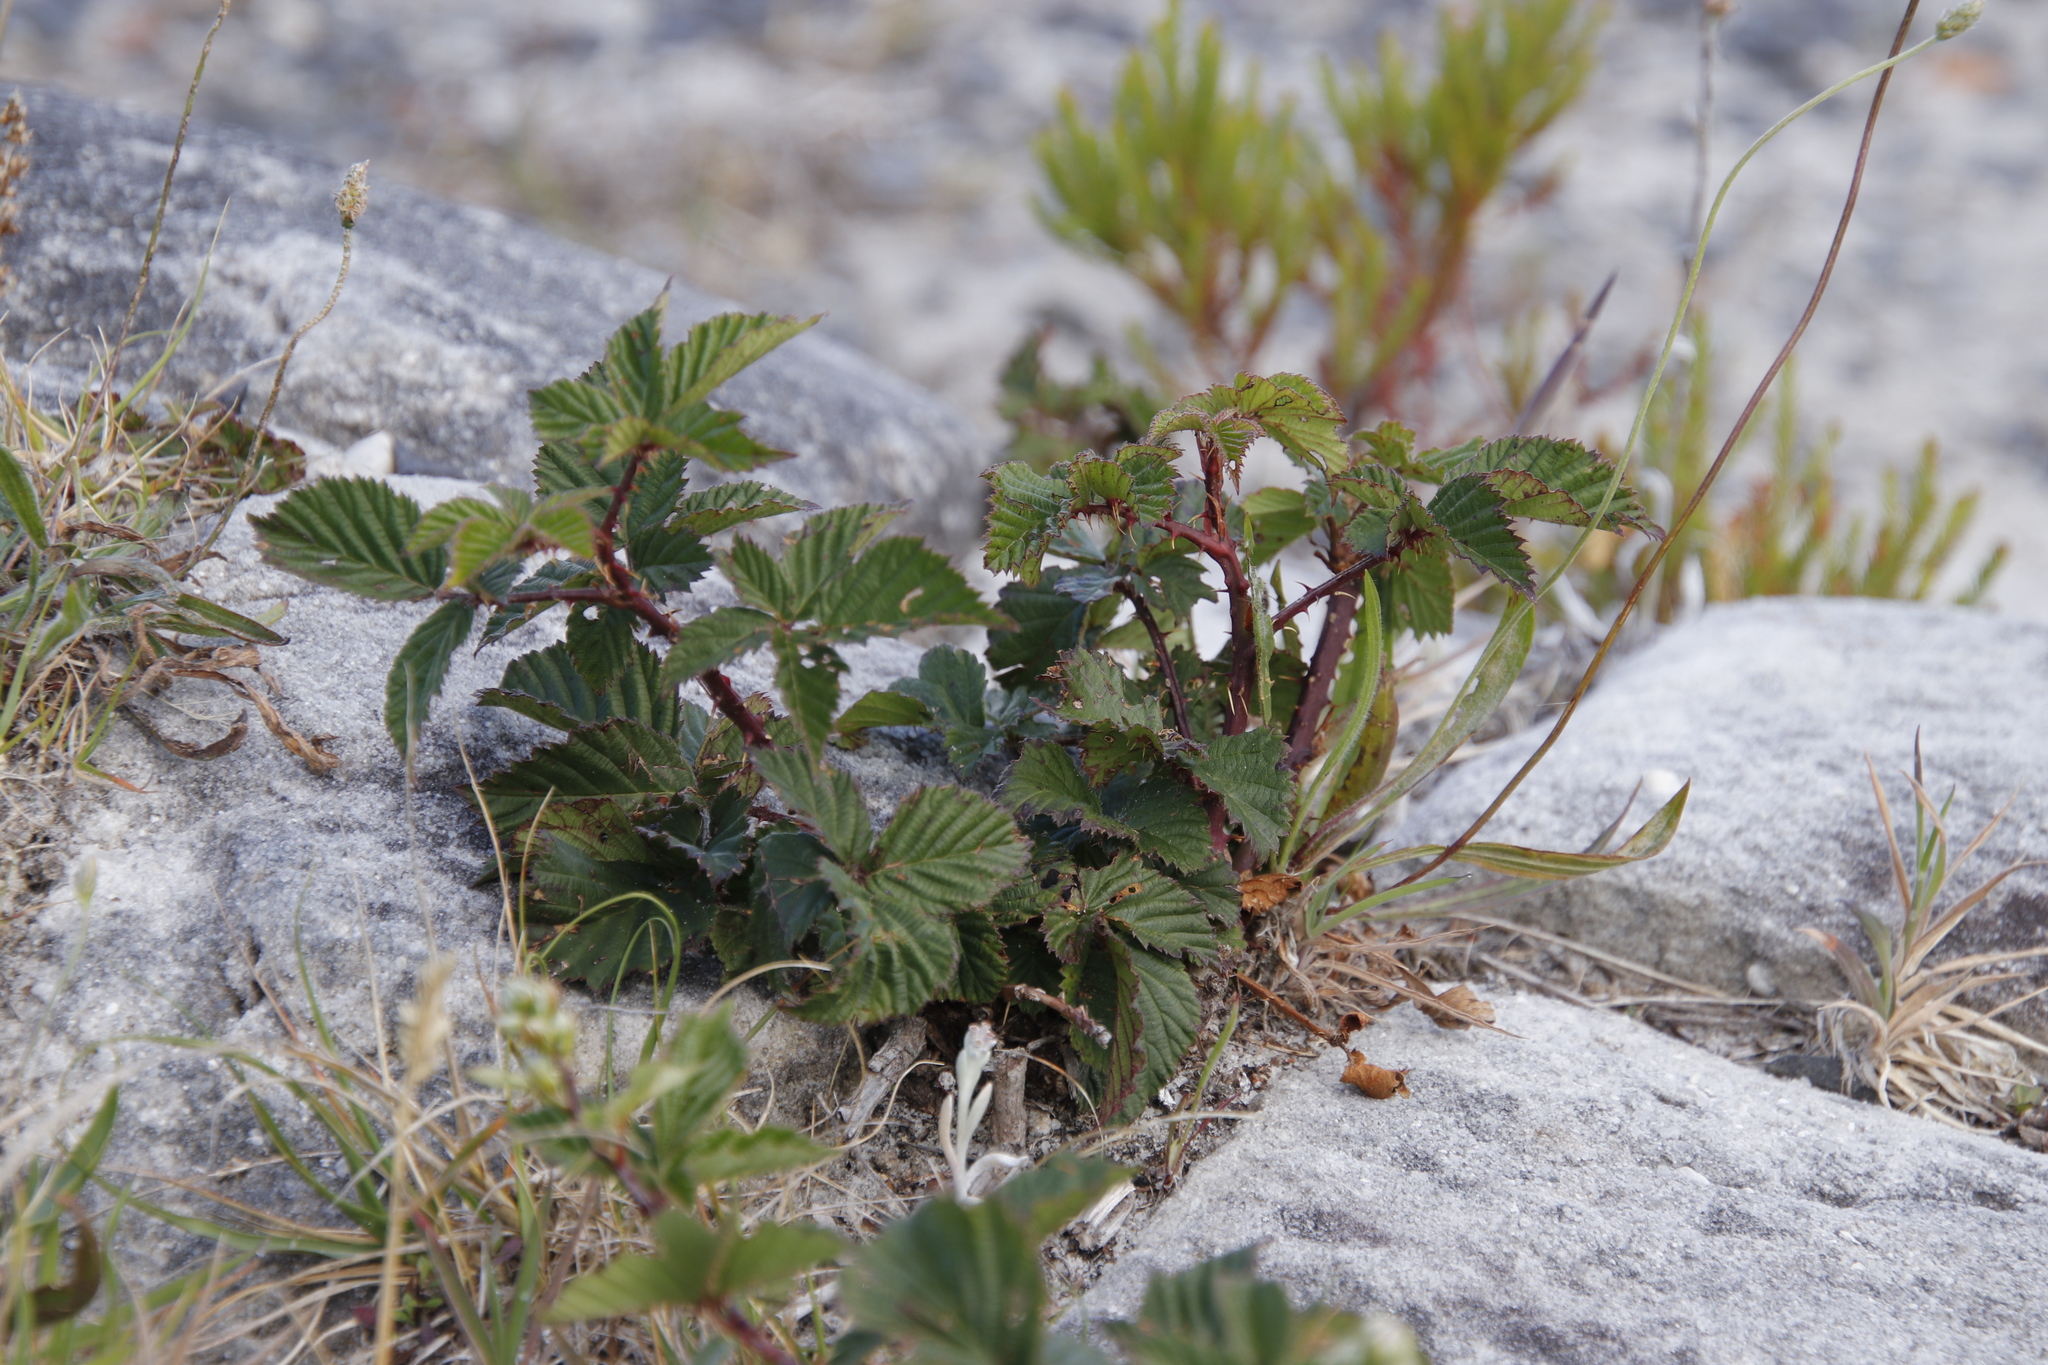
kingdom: Plantae
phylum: Tracheophyta
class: Magnoliopsida
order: Rosales
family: Rosaceae
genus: Rubus
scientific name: Rubus affinis
